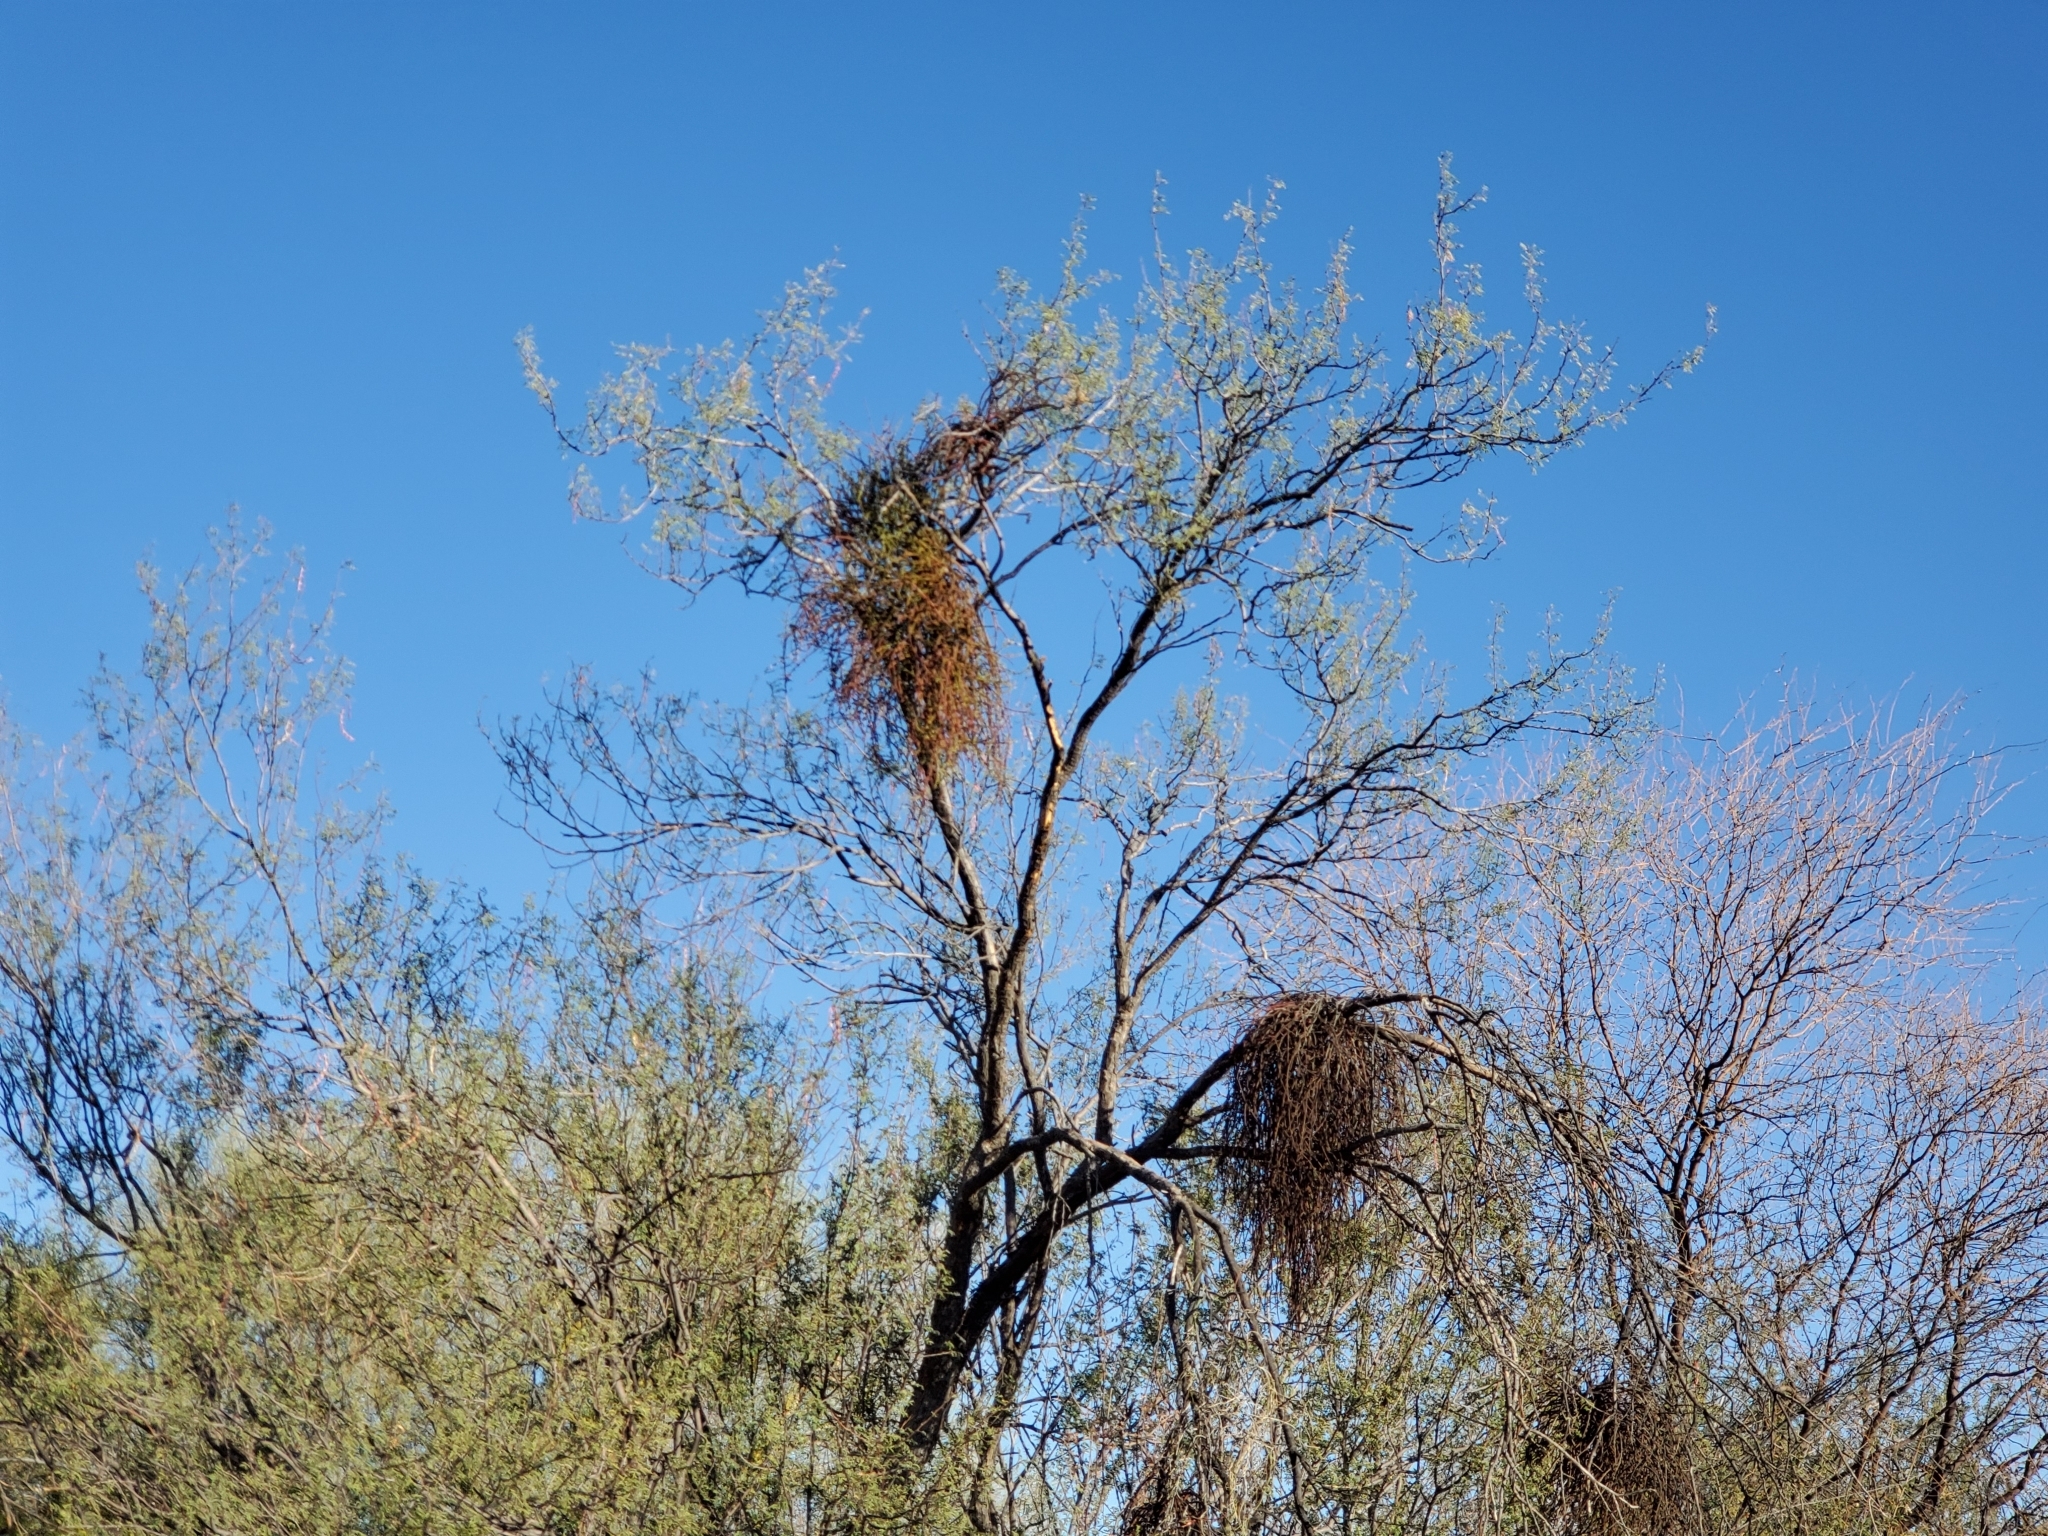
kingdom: Plantae
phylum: Tracheophyta
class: Magnoliopsida
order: Santalales
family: Viscaceae
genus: Phoradendron
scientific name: Phoradendron californicum
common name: Acacia mistletoe
